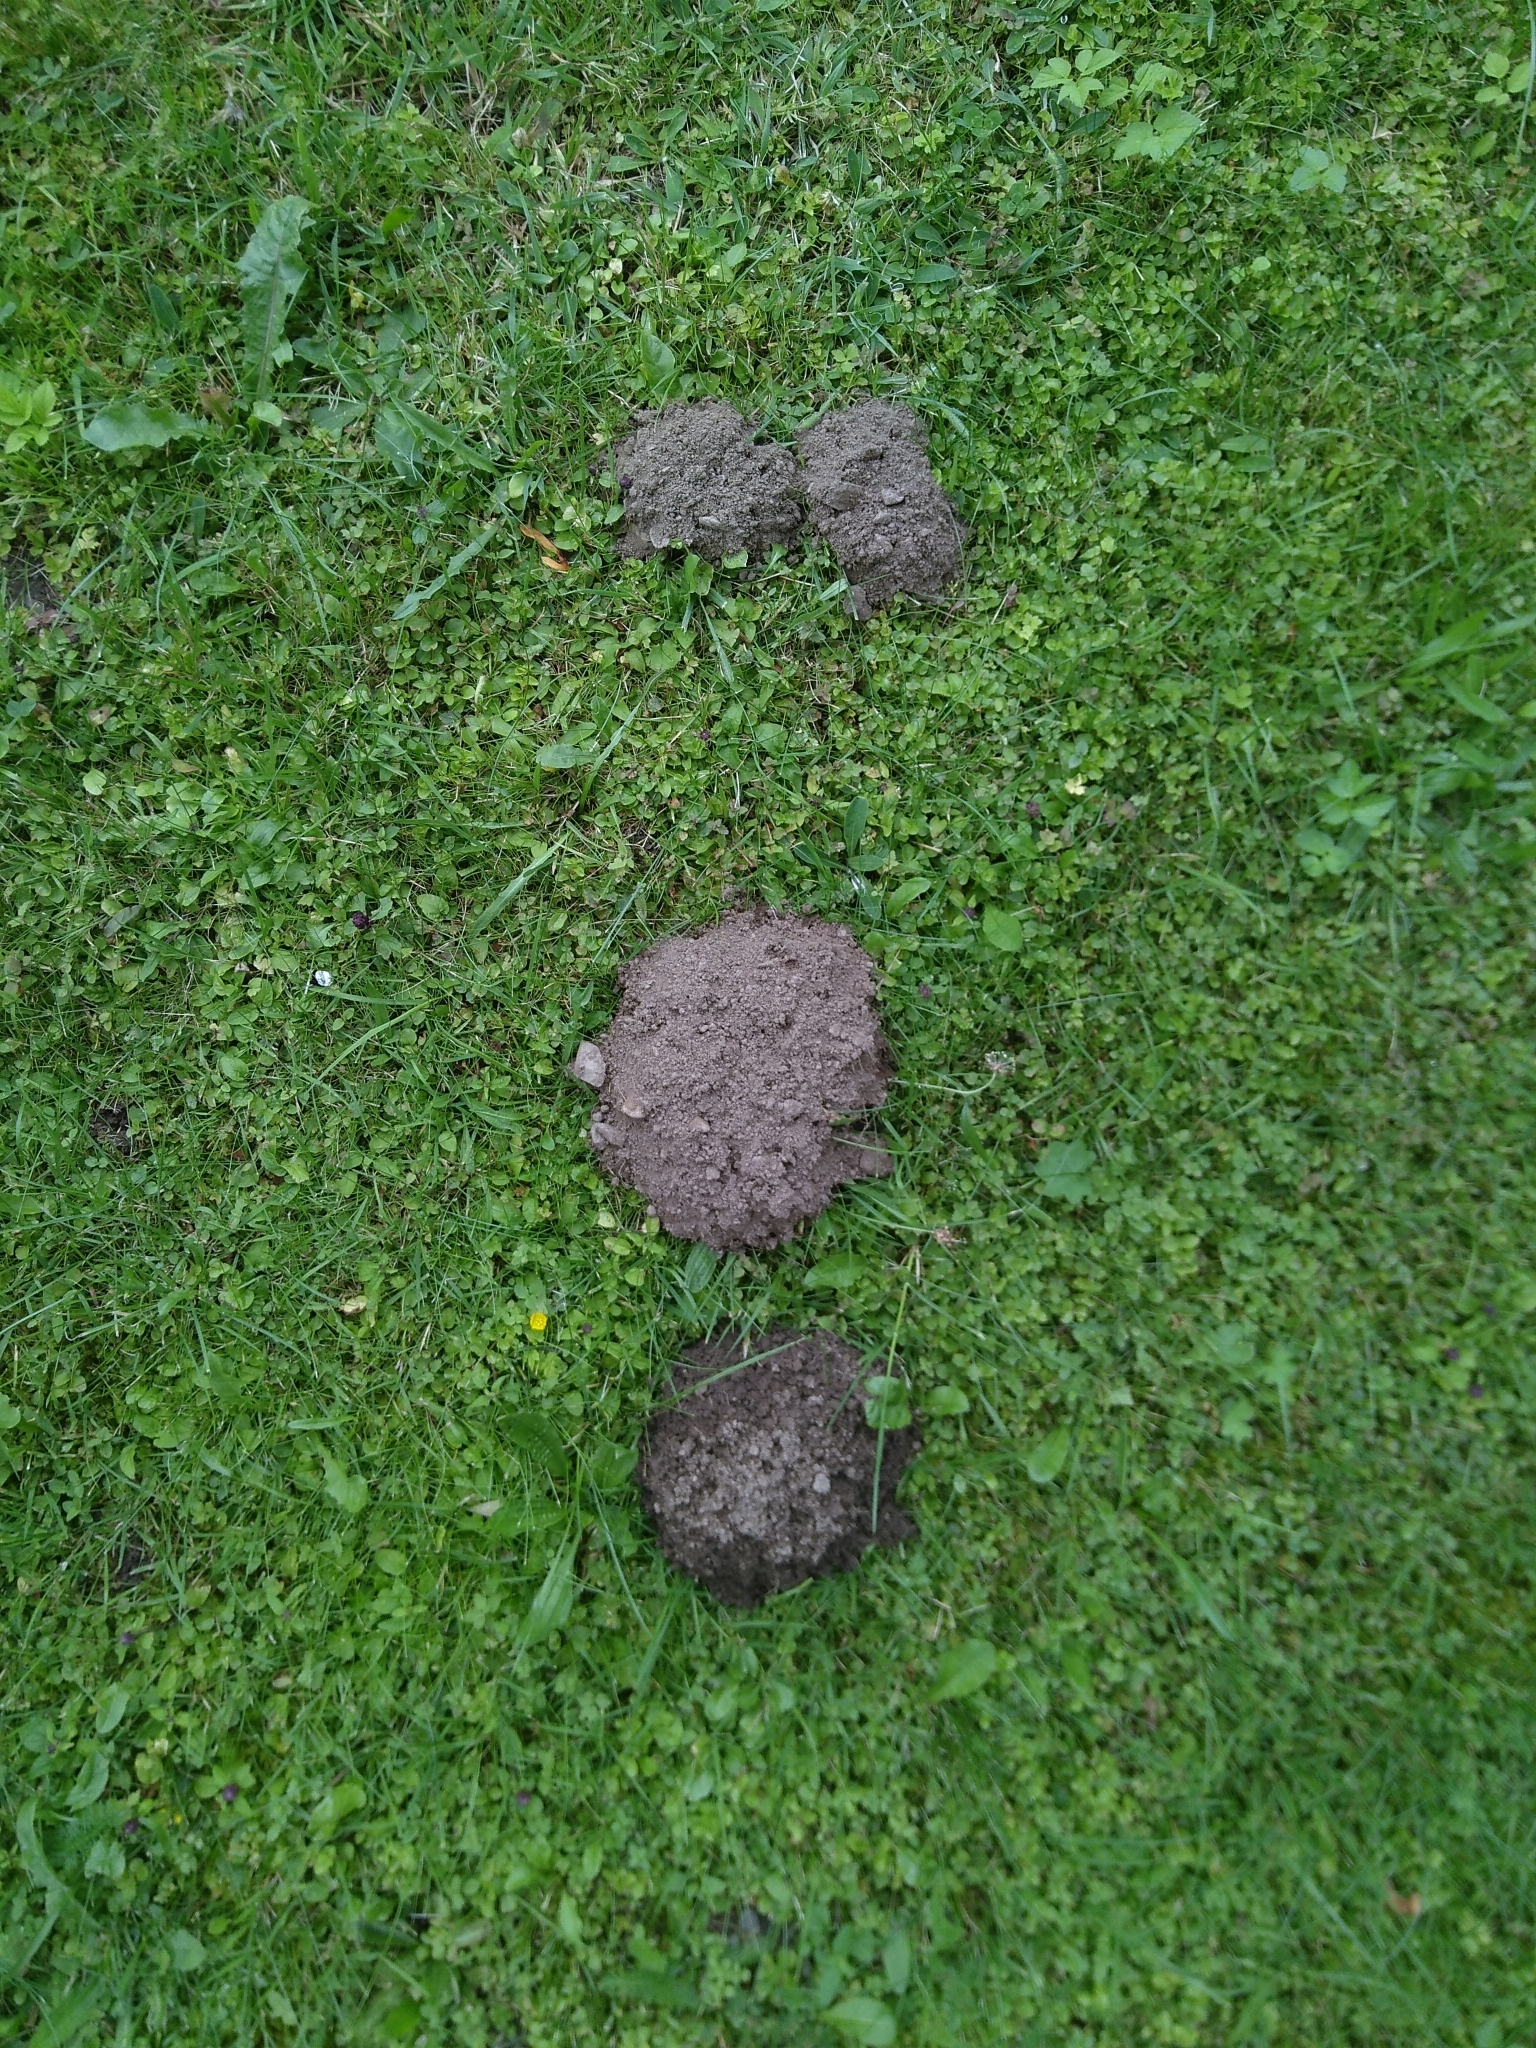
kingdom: Animalia
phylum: Chordata
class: Mammalia
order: Soricomorpha
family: Talpidae
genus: Talpa
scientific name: Talpa europaea
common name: European mole
